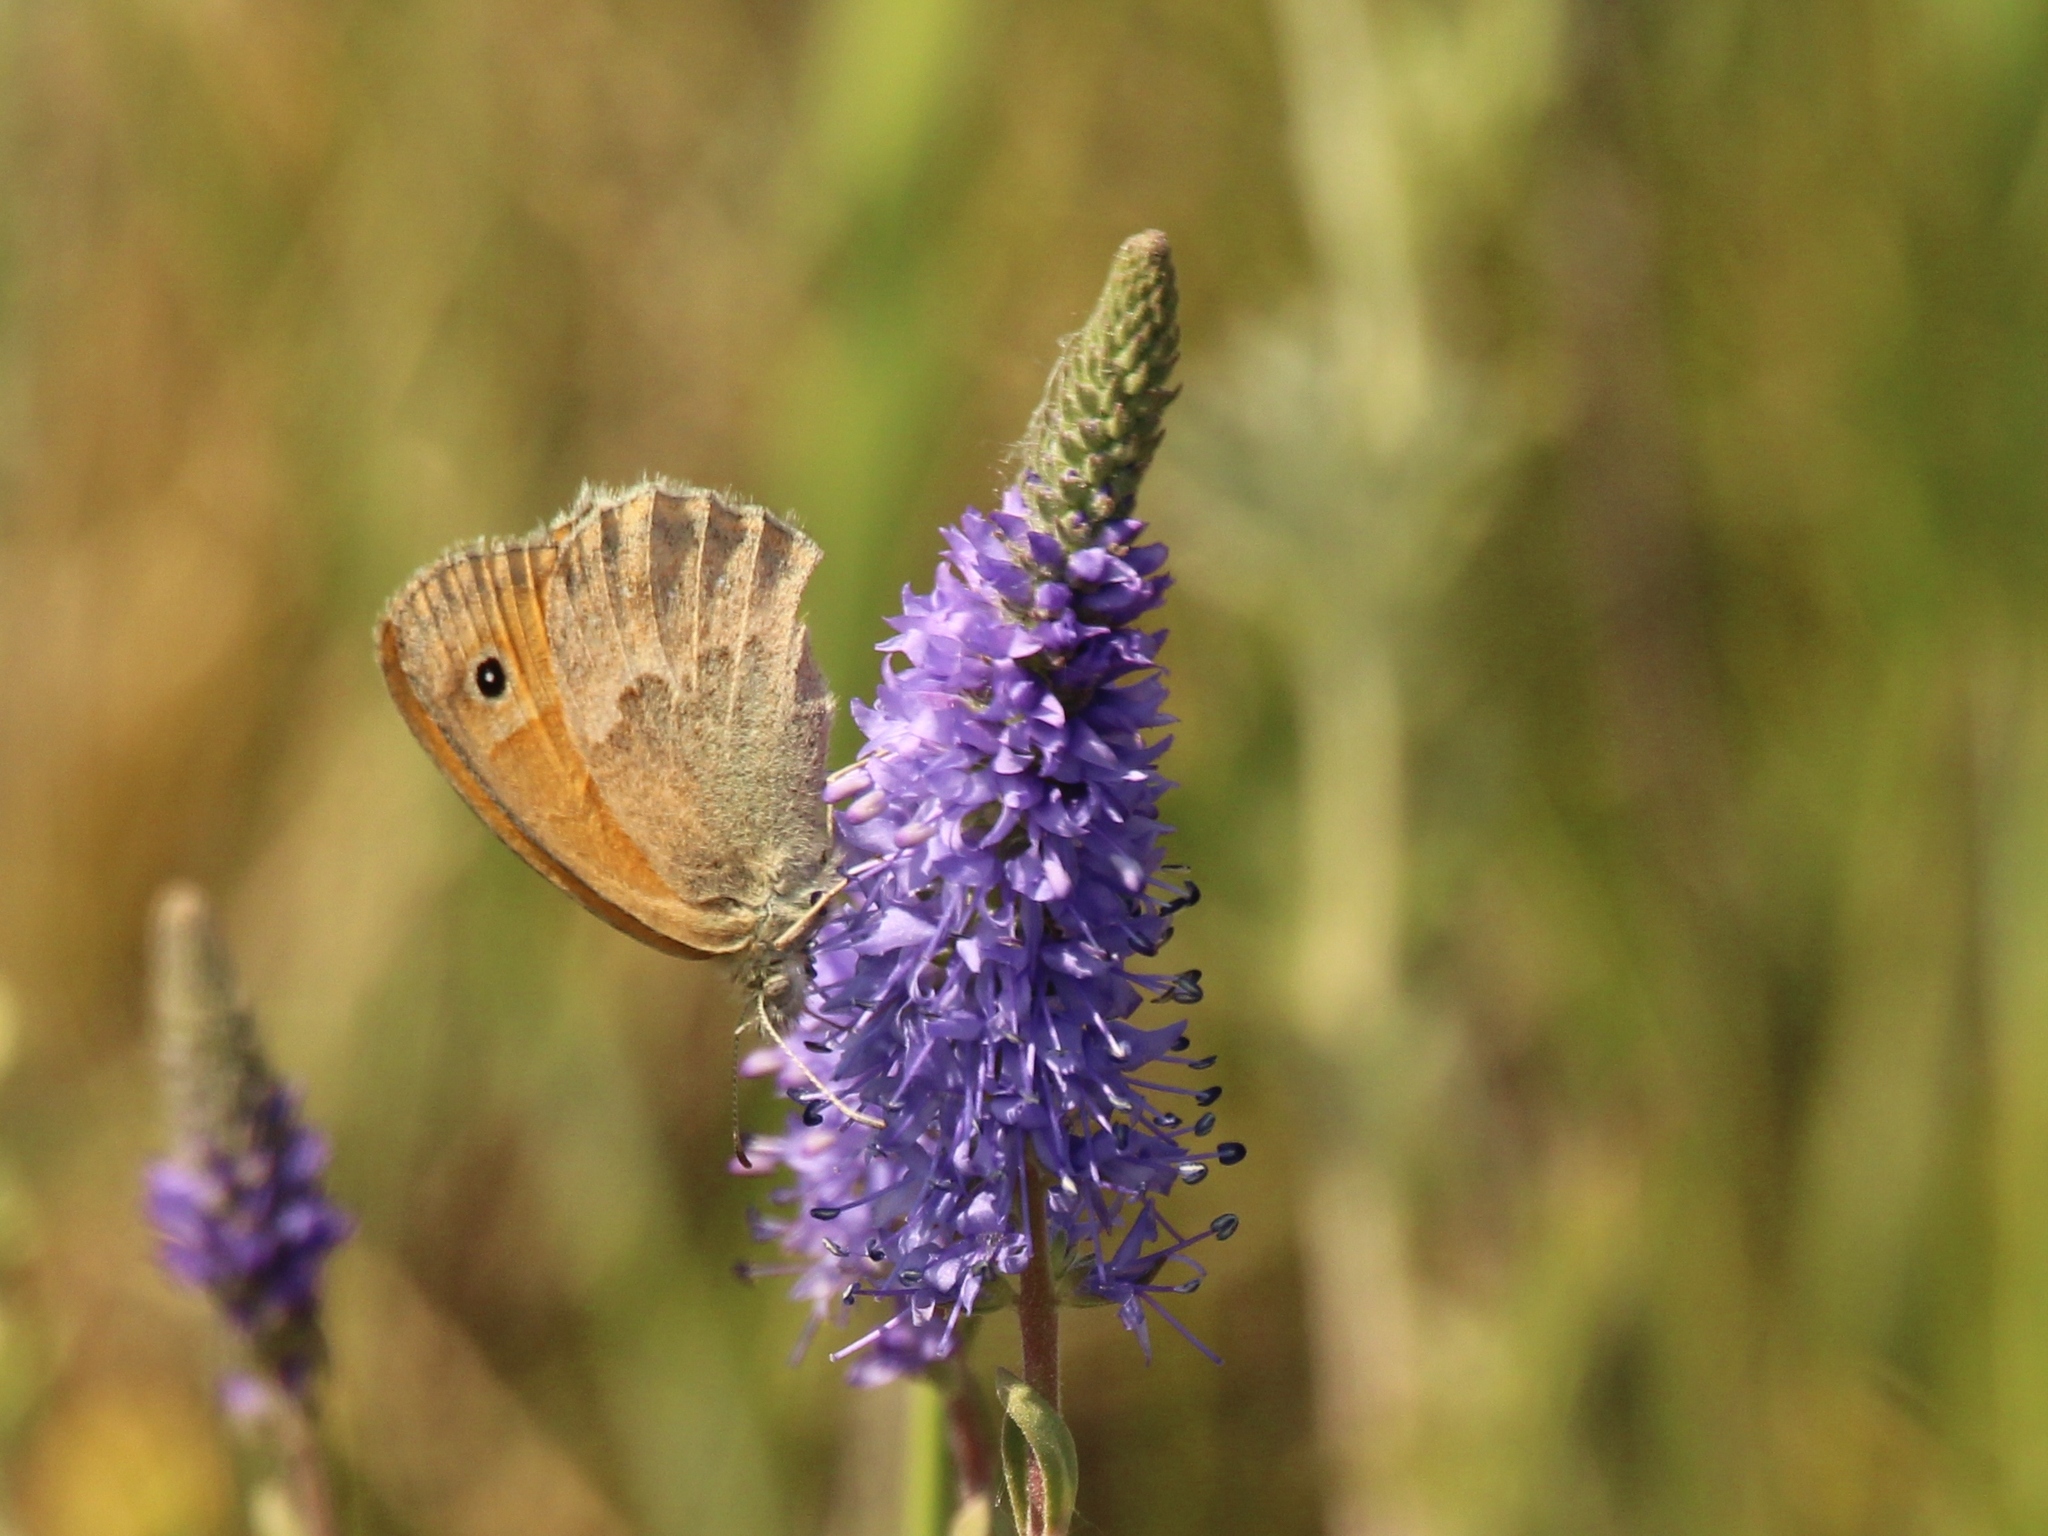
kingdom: Animalia
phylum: Arthropoda
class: Insecta
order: Lepidoptera
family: Nymphalidae
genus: Coenonympha
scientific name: Coenonympha pamphilus
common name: Small heath
